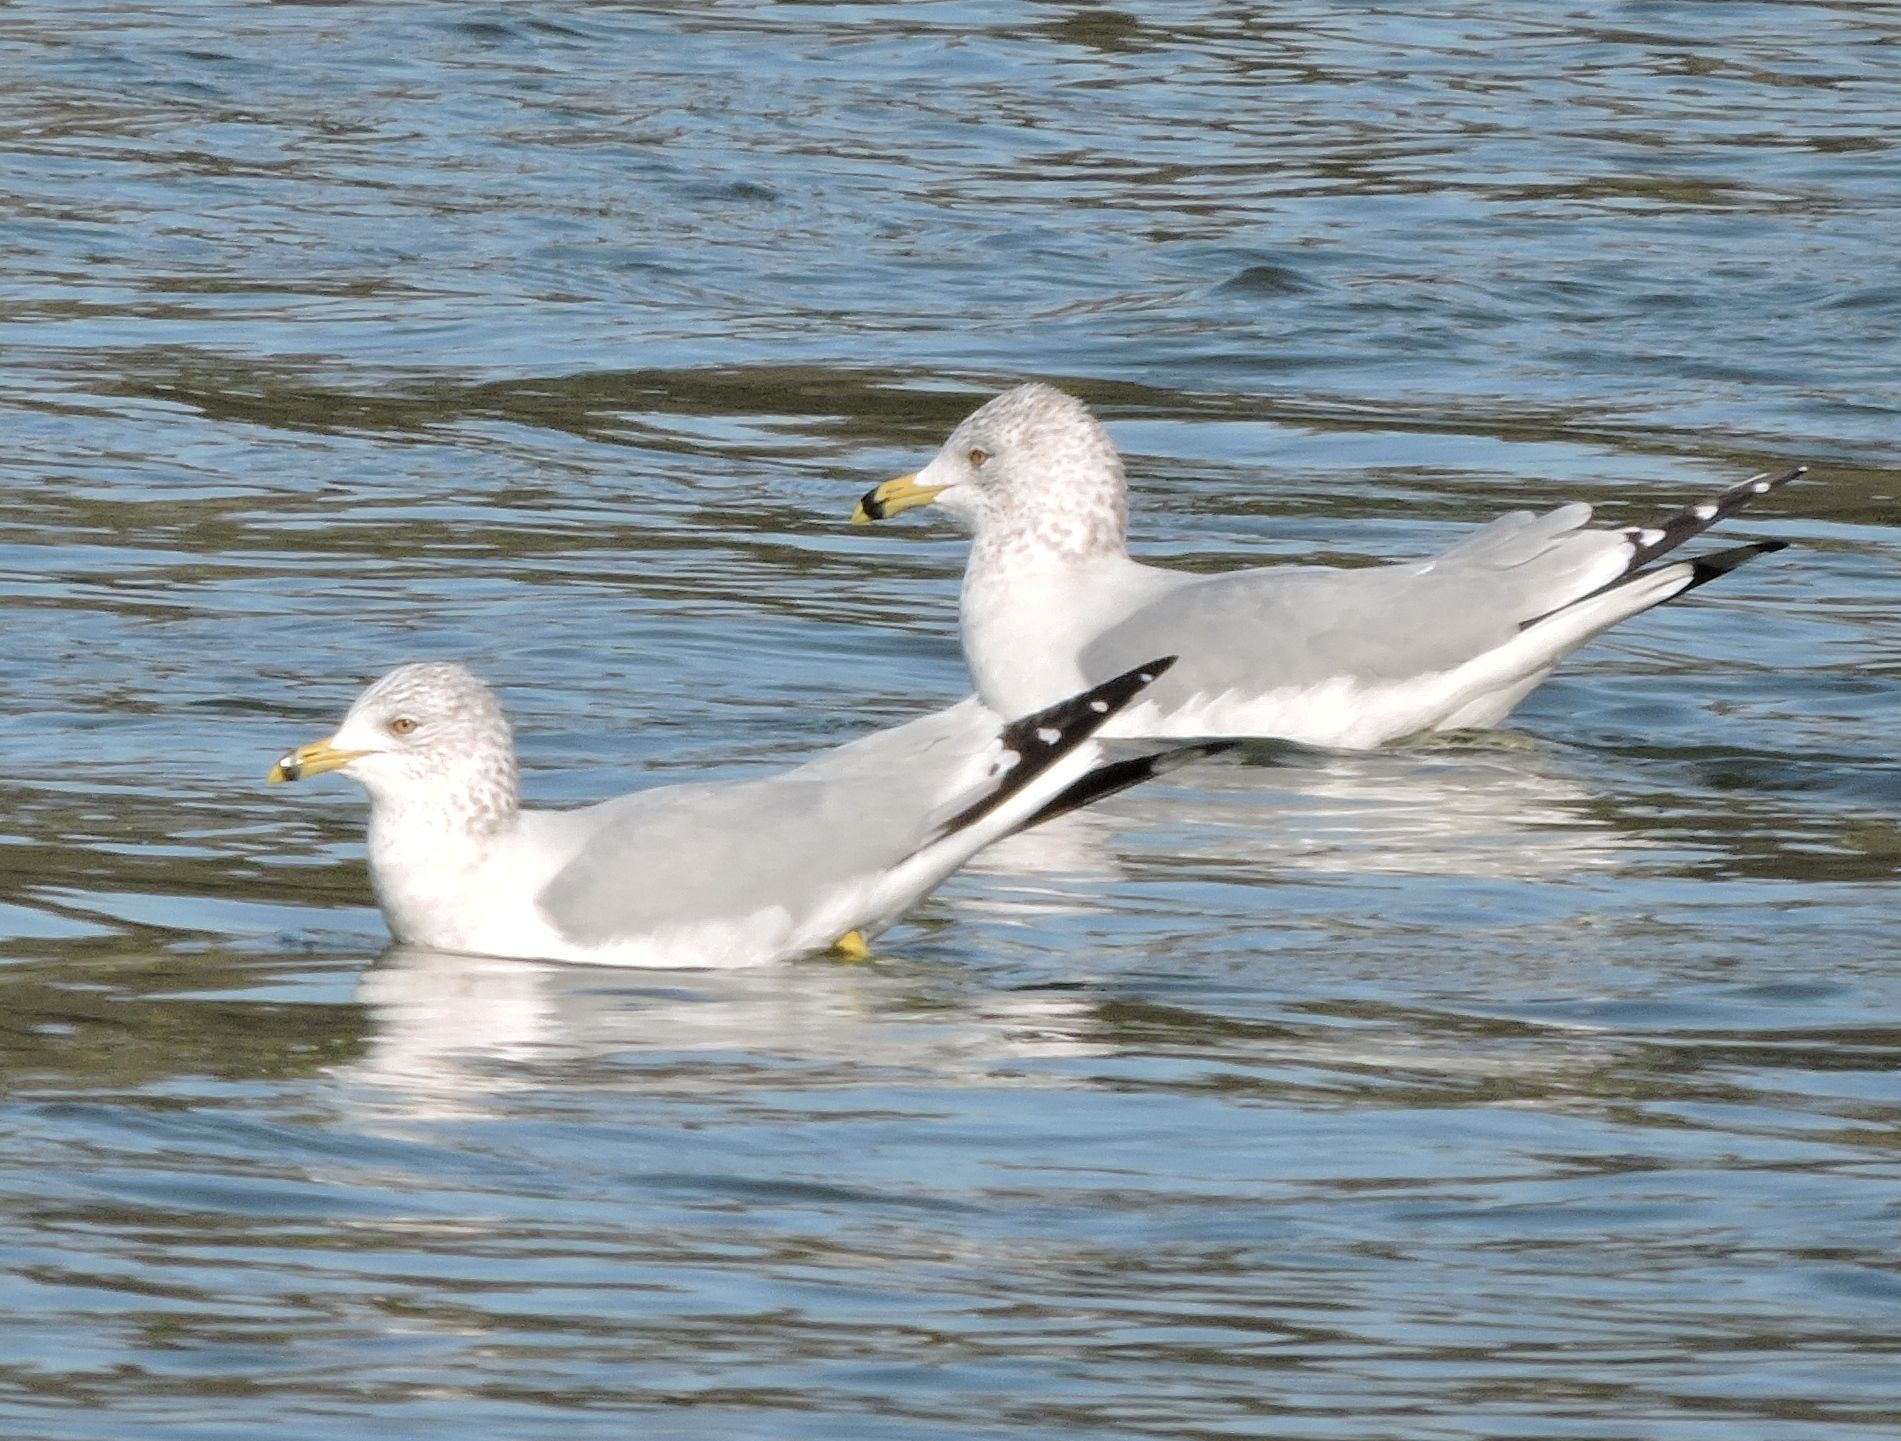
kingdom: Animalia
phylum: Chordata
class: Aves
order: Charadriiformes
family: Laridae
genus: Larus
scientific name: Larus delawarensis
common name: Ring-billed gull
